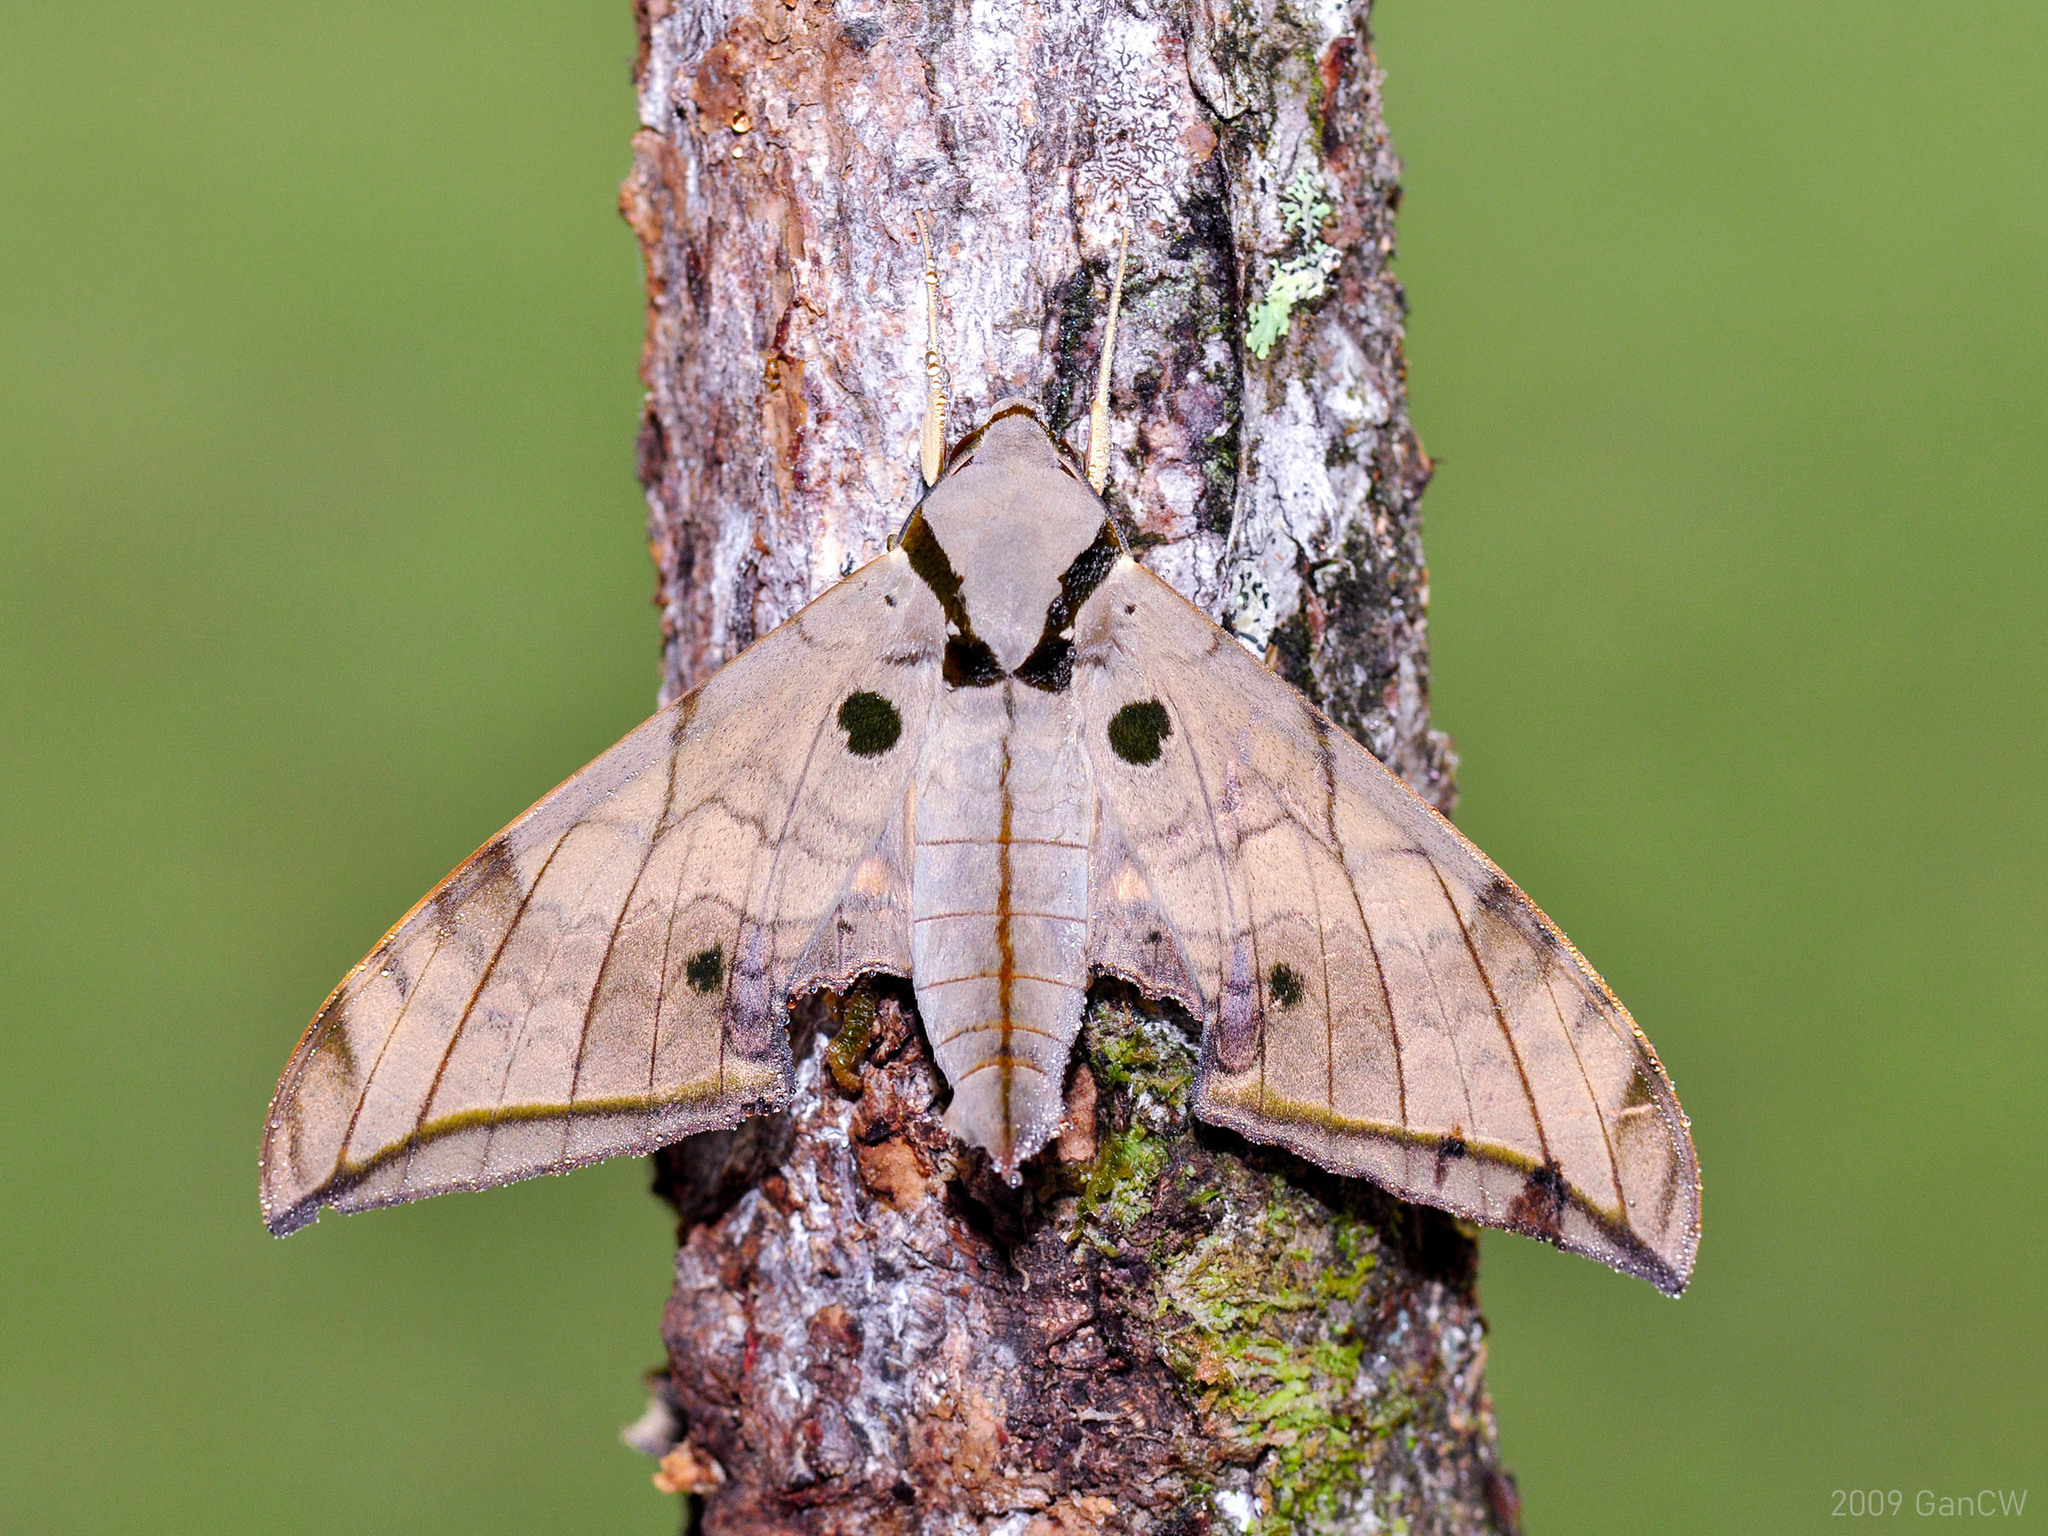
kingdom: Animalia
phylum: Arthropoda
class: Insecta
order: Lepidoptera
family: Sphingidae
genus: Ambulyx
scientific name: Ambulyx substrigilis
